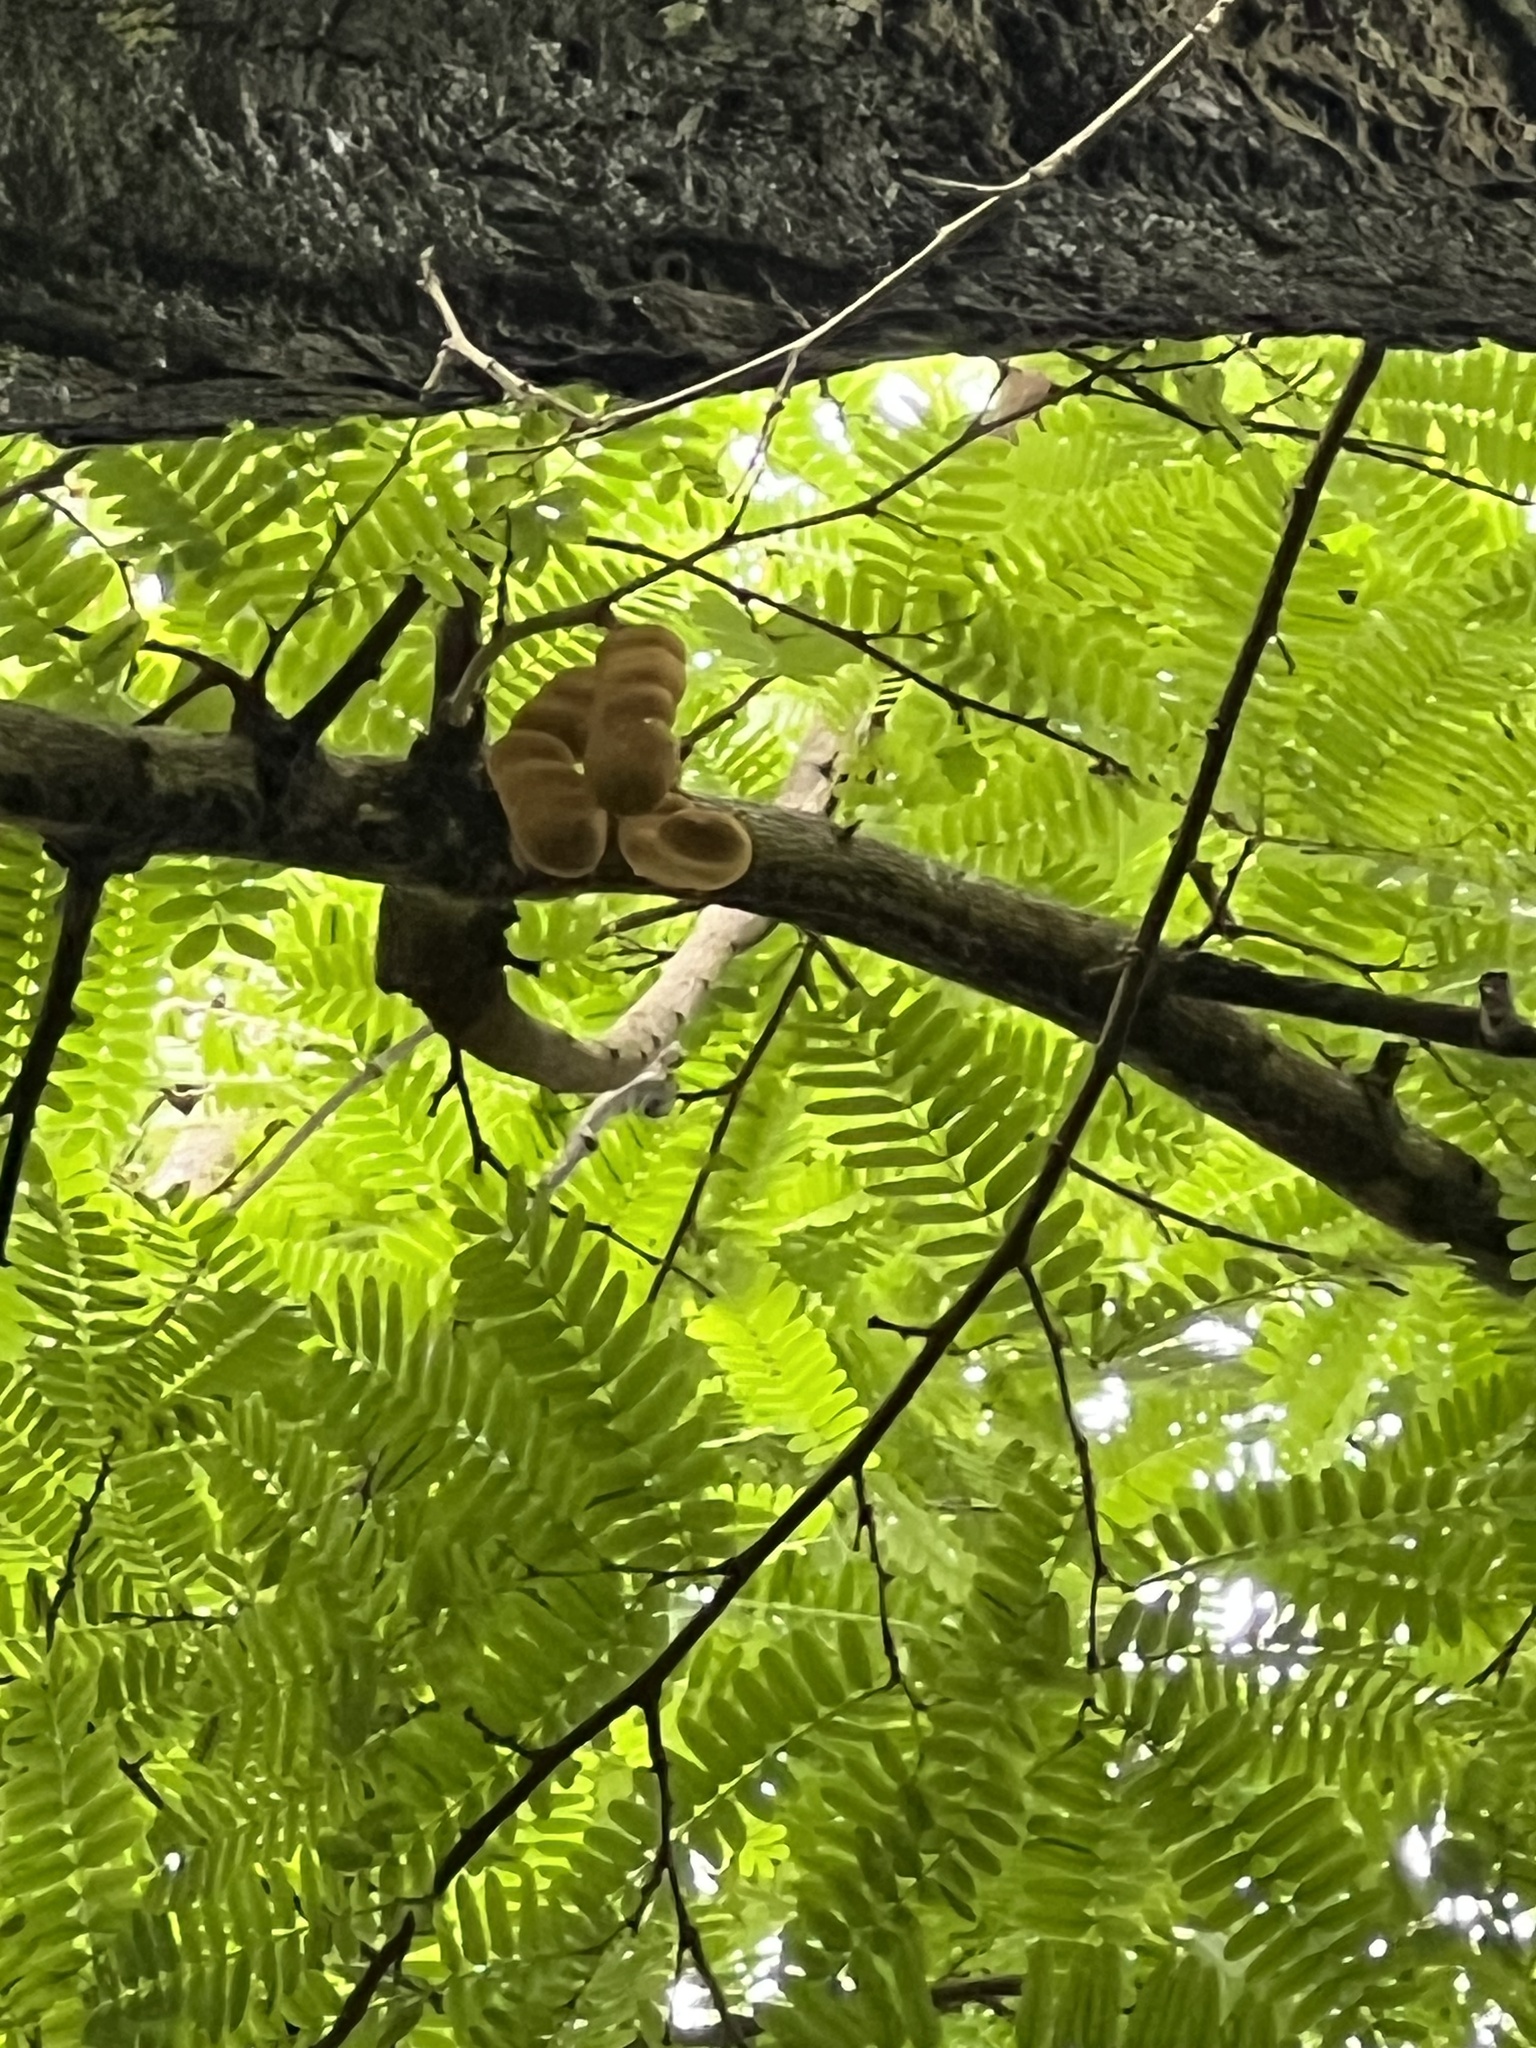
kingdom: Plantae
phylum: Tracheophyta
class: Magnoliopsida
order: Fabales
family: Fabaceae
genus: Tamarindus
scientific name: Tamarindus indica
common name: Tamarind
